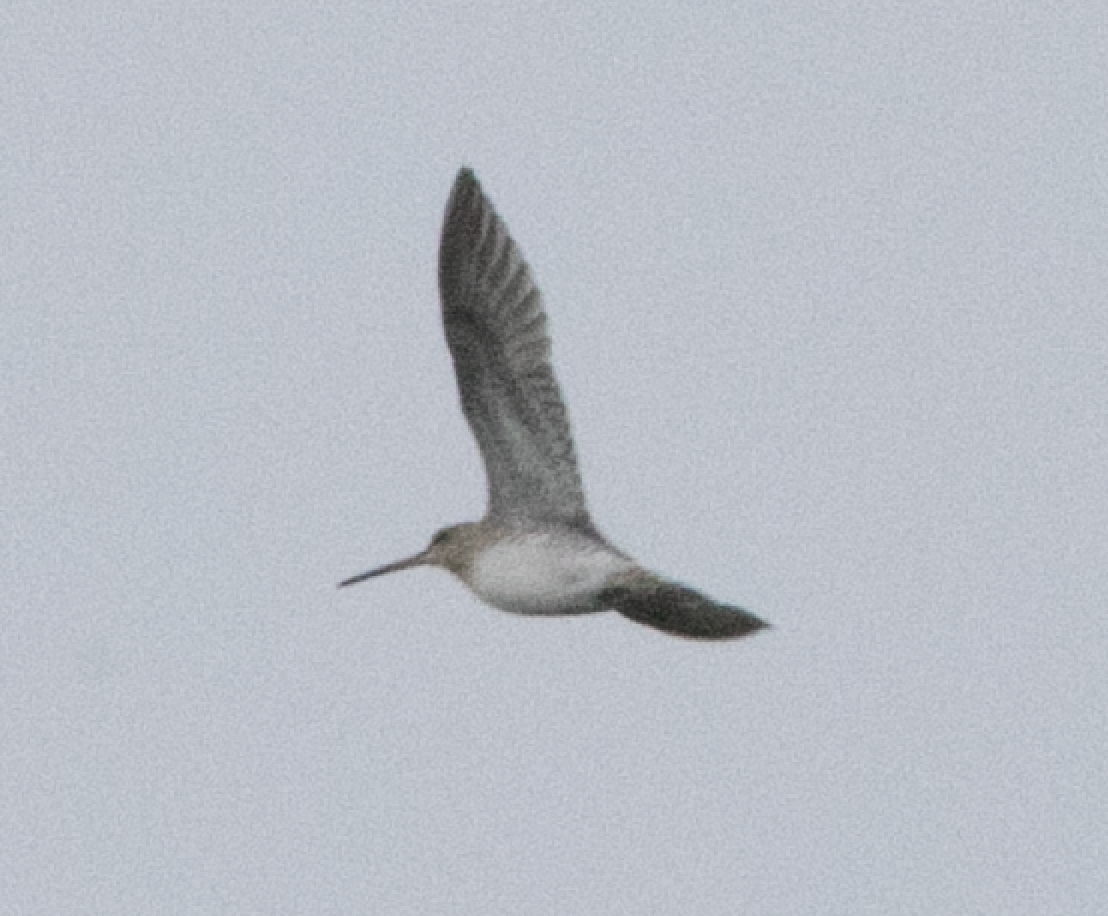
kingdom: Animalia
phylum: Chordata
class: Aves
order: Charadriiformes
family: Scolopacidae
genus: Gallinago
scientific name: Gallinago gallinago
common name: Common snipe
